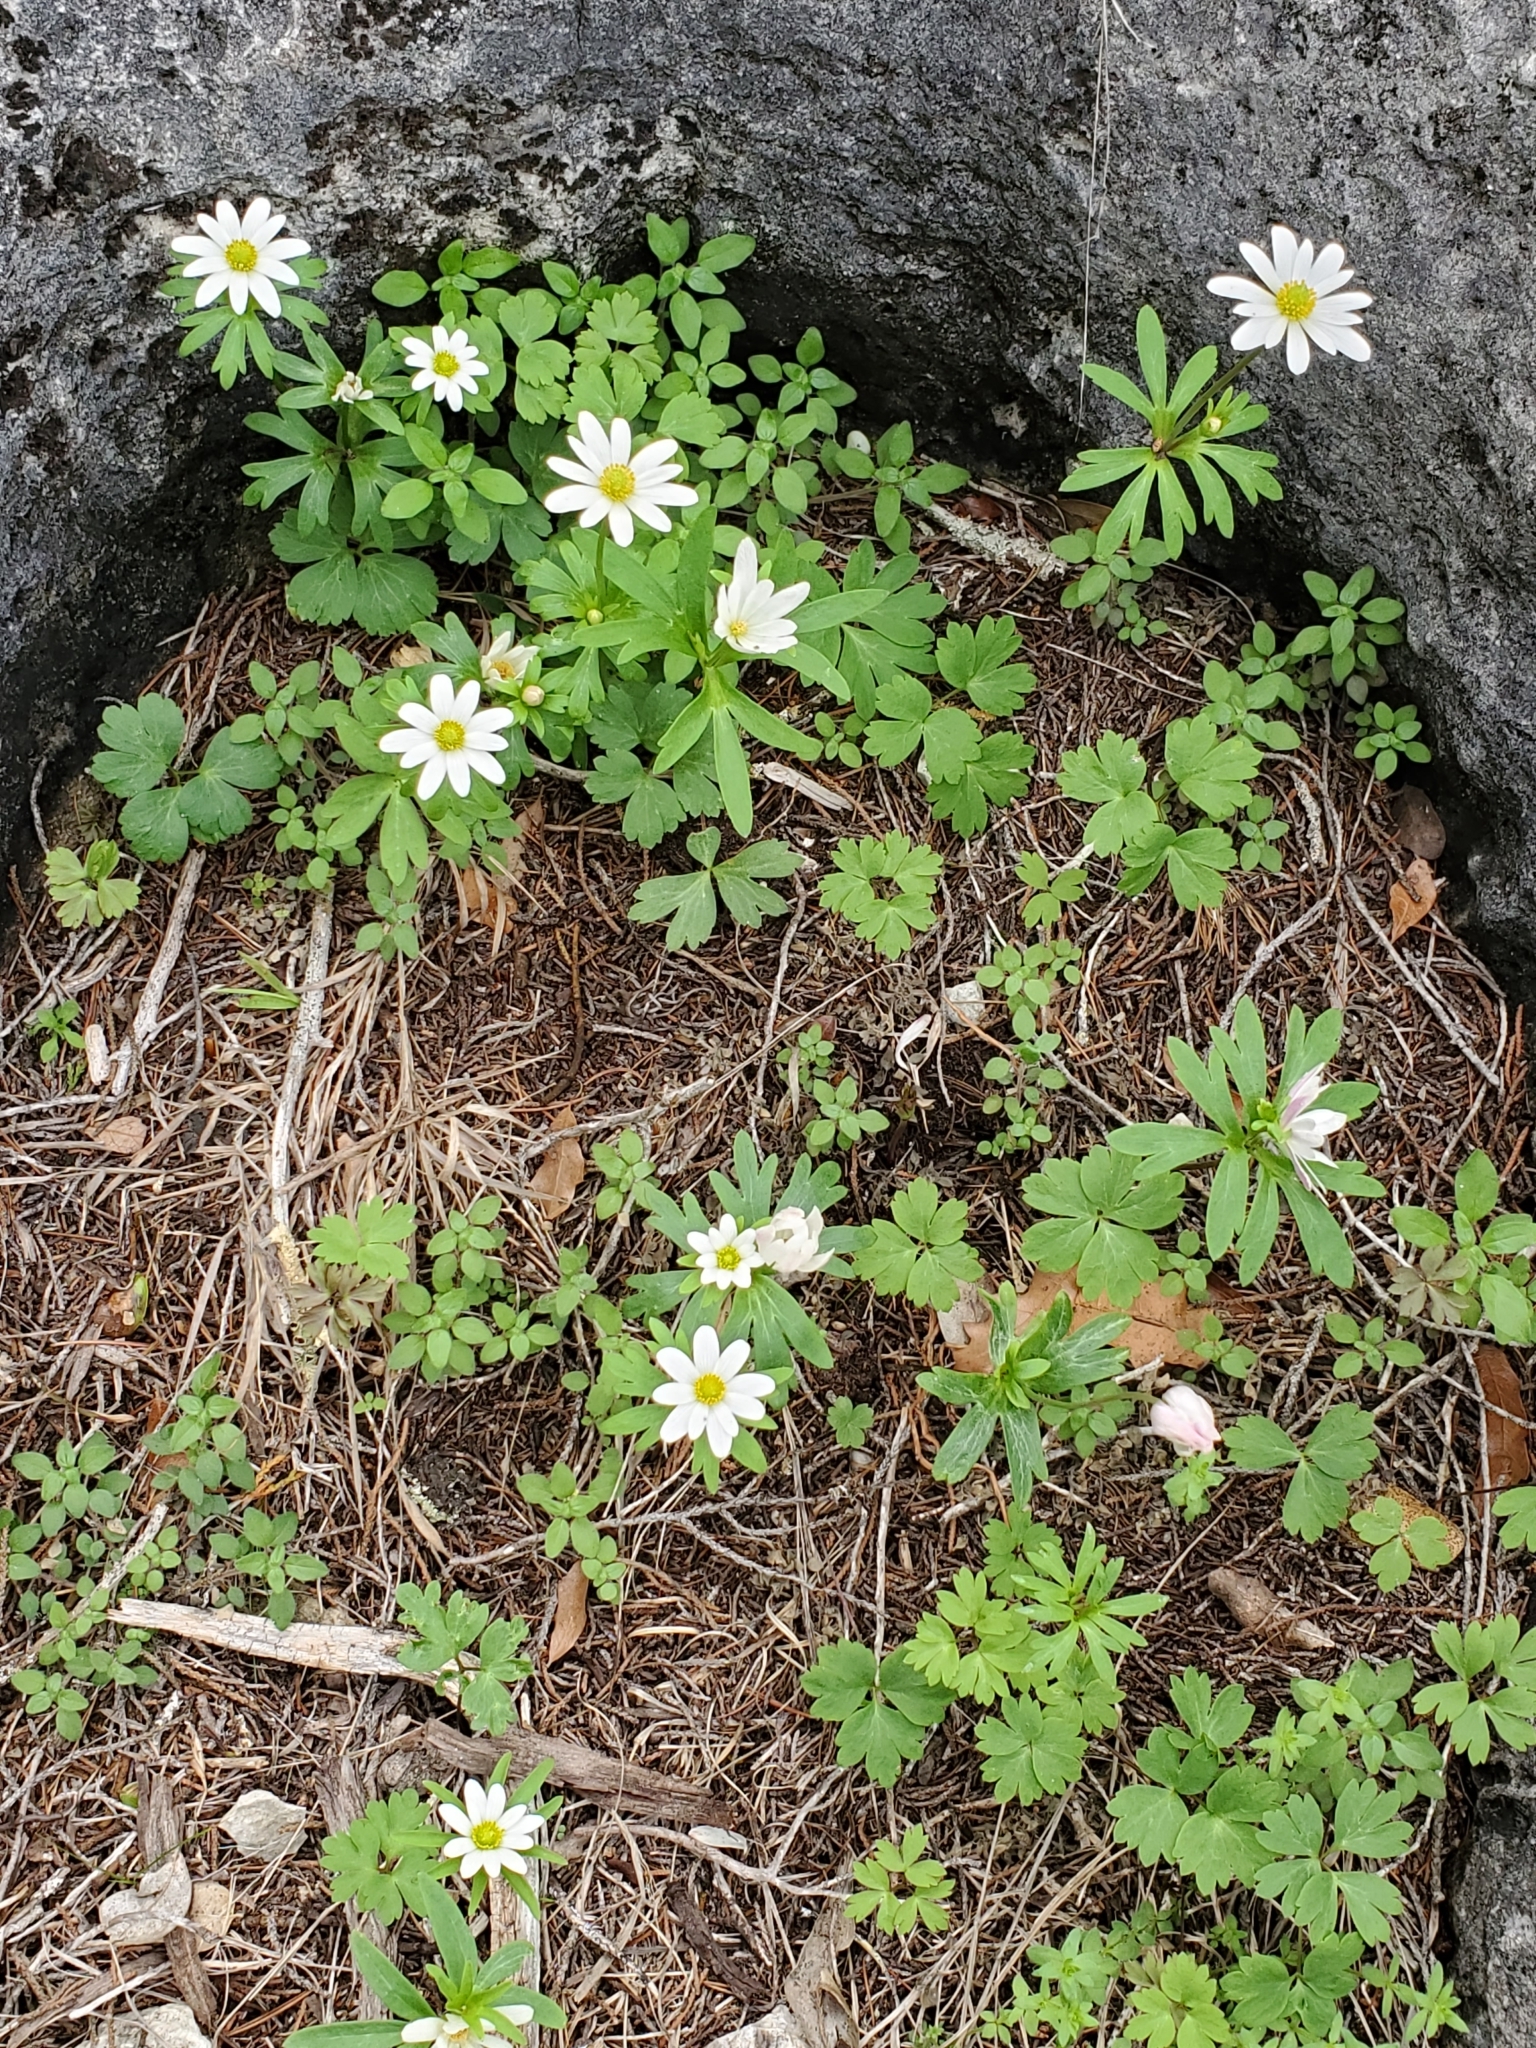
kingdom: Plantae
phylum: Tracheophyta
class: Magnoliopsida
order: Ranunculales
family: Ranunculaceae
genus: Anemone
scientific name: Anemone edwardsiana
